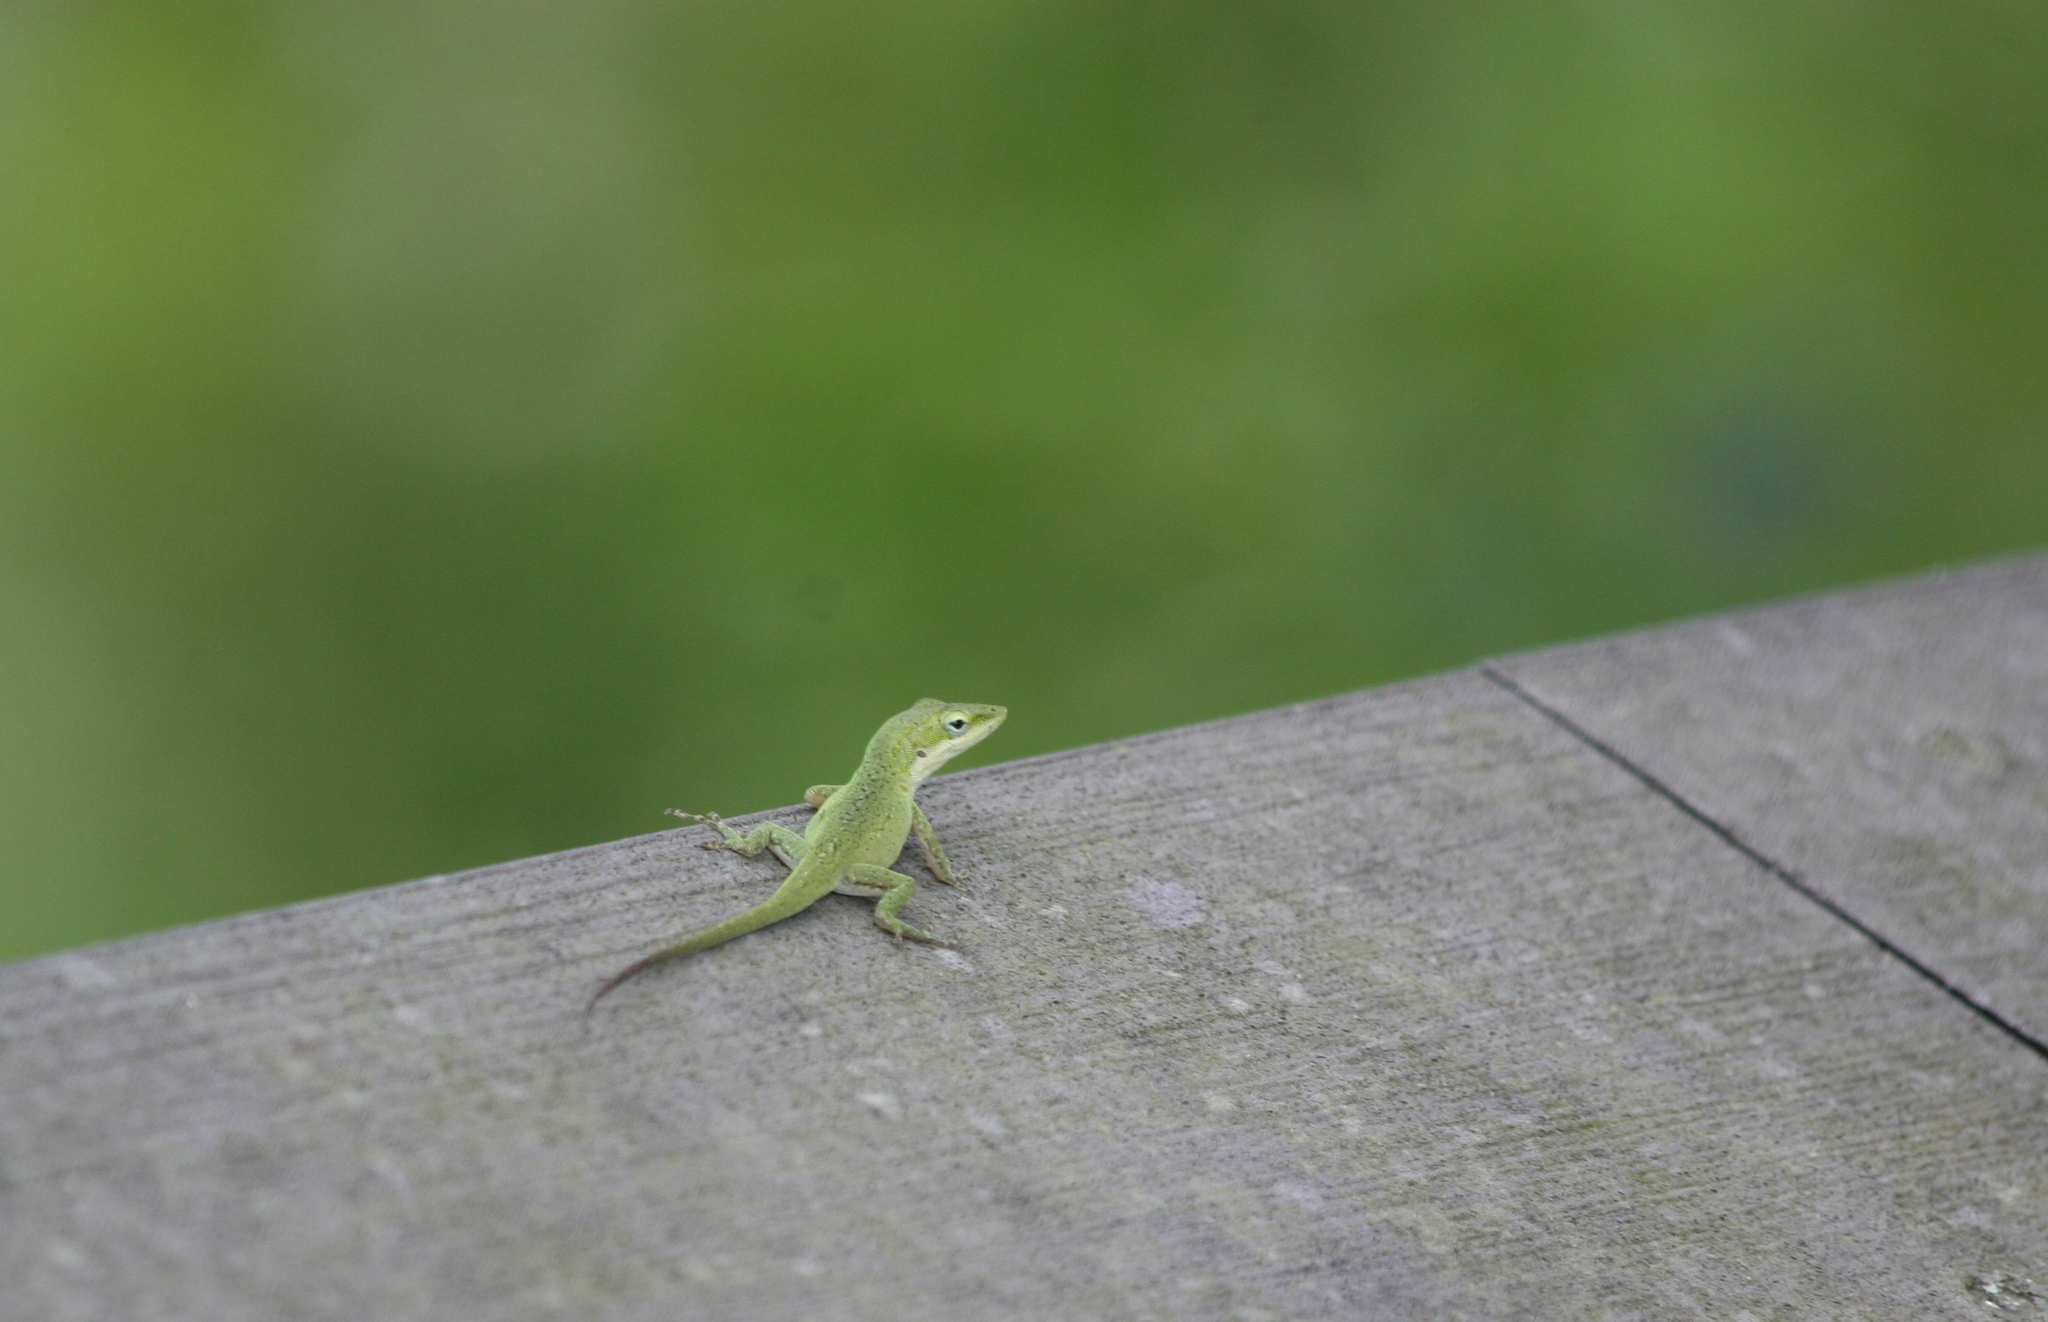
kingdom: Animalia
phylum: Chordata
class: Squamata
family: Dactyloidae
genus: Anolis
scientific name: Anolis carolinensis
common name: Green anole
